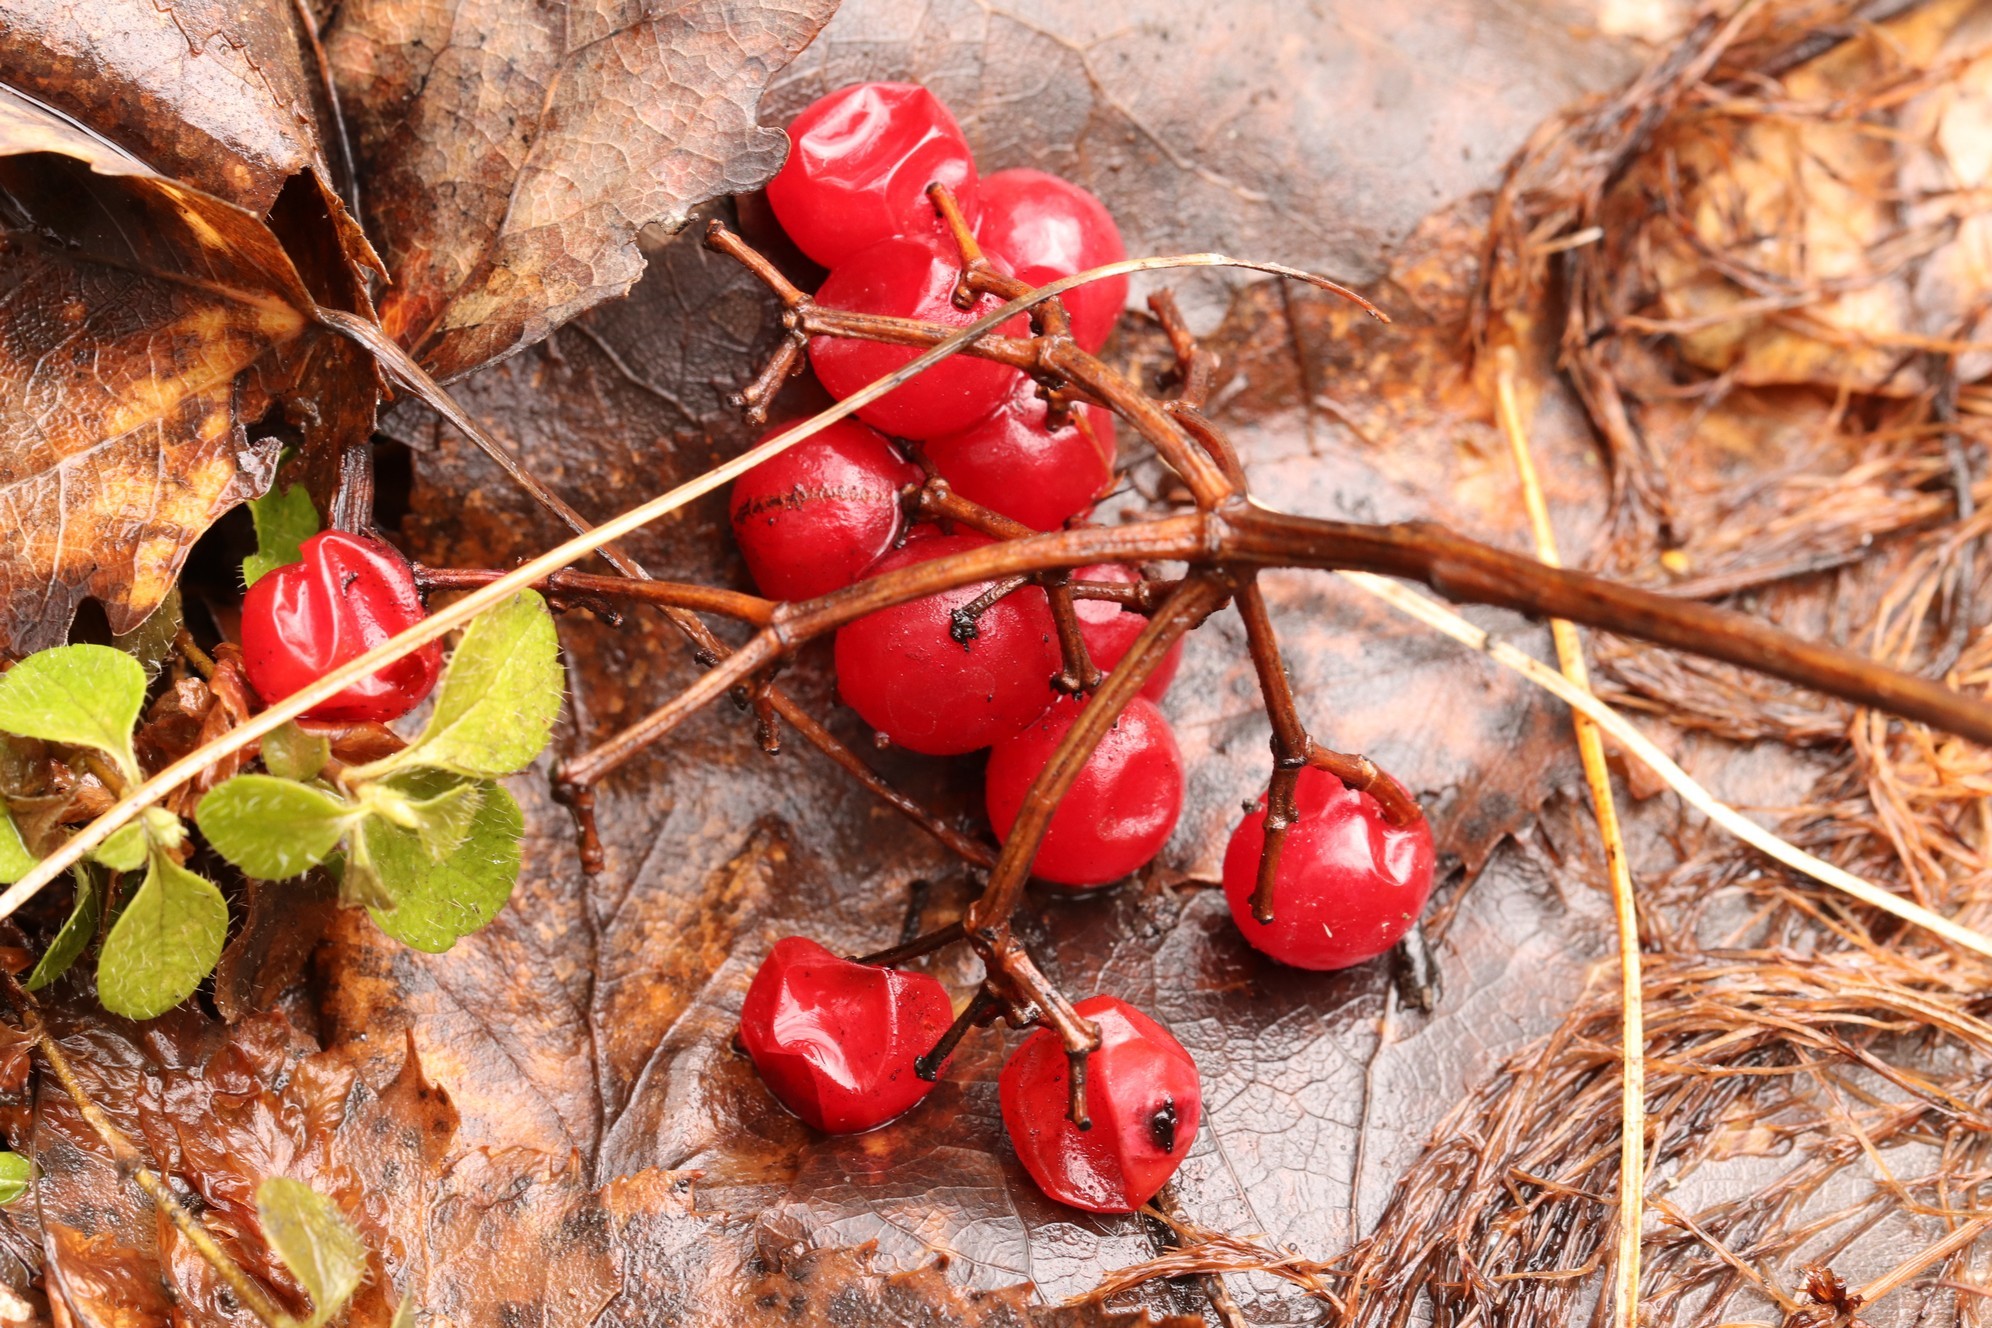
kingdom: Plantae
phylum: Tracheophyta
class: Magnoliopsida
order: Dipsacales
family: Viburnaceae
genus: Viburnum
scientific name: Viburnum opulus
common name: Guelder-rose
